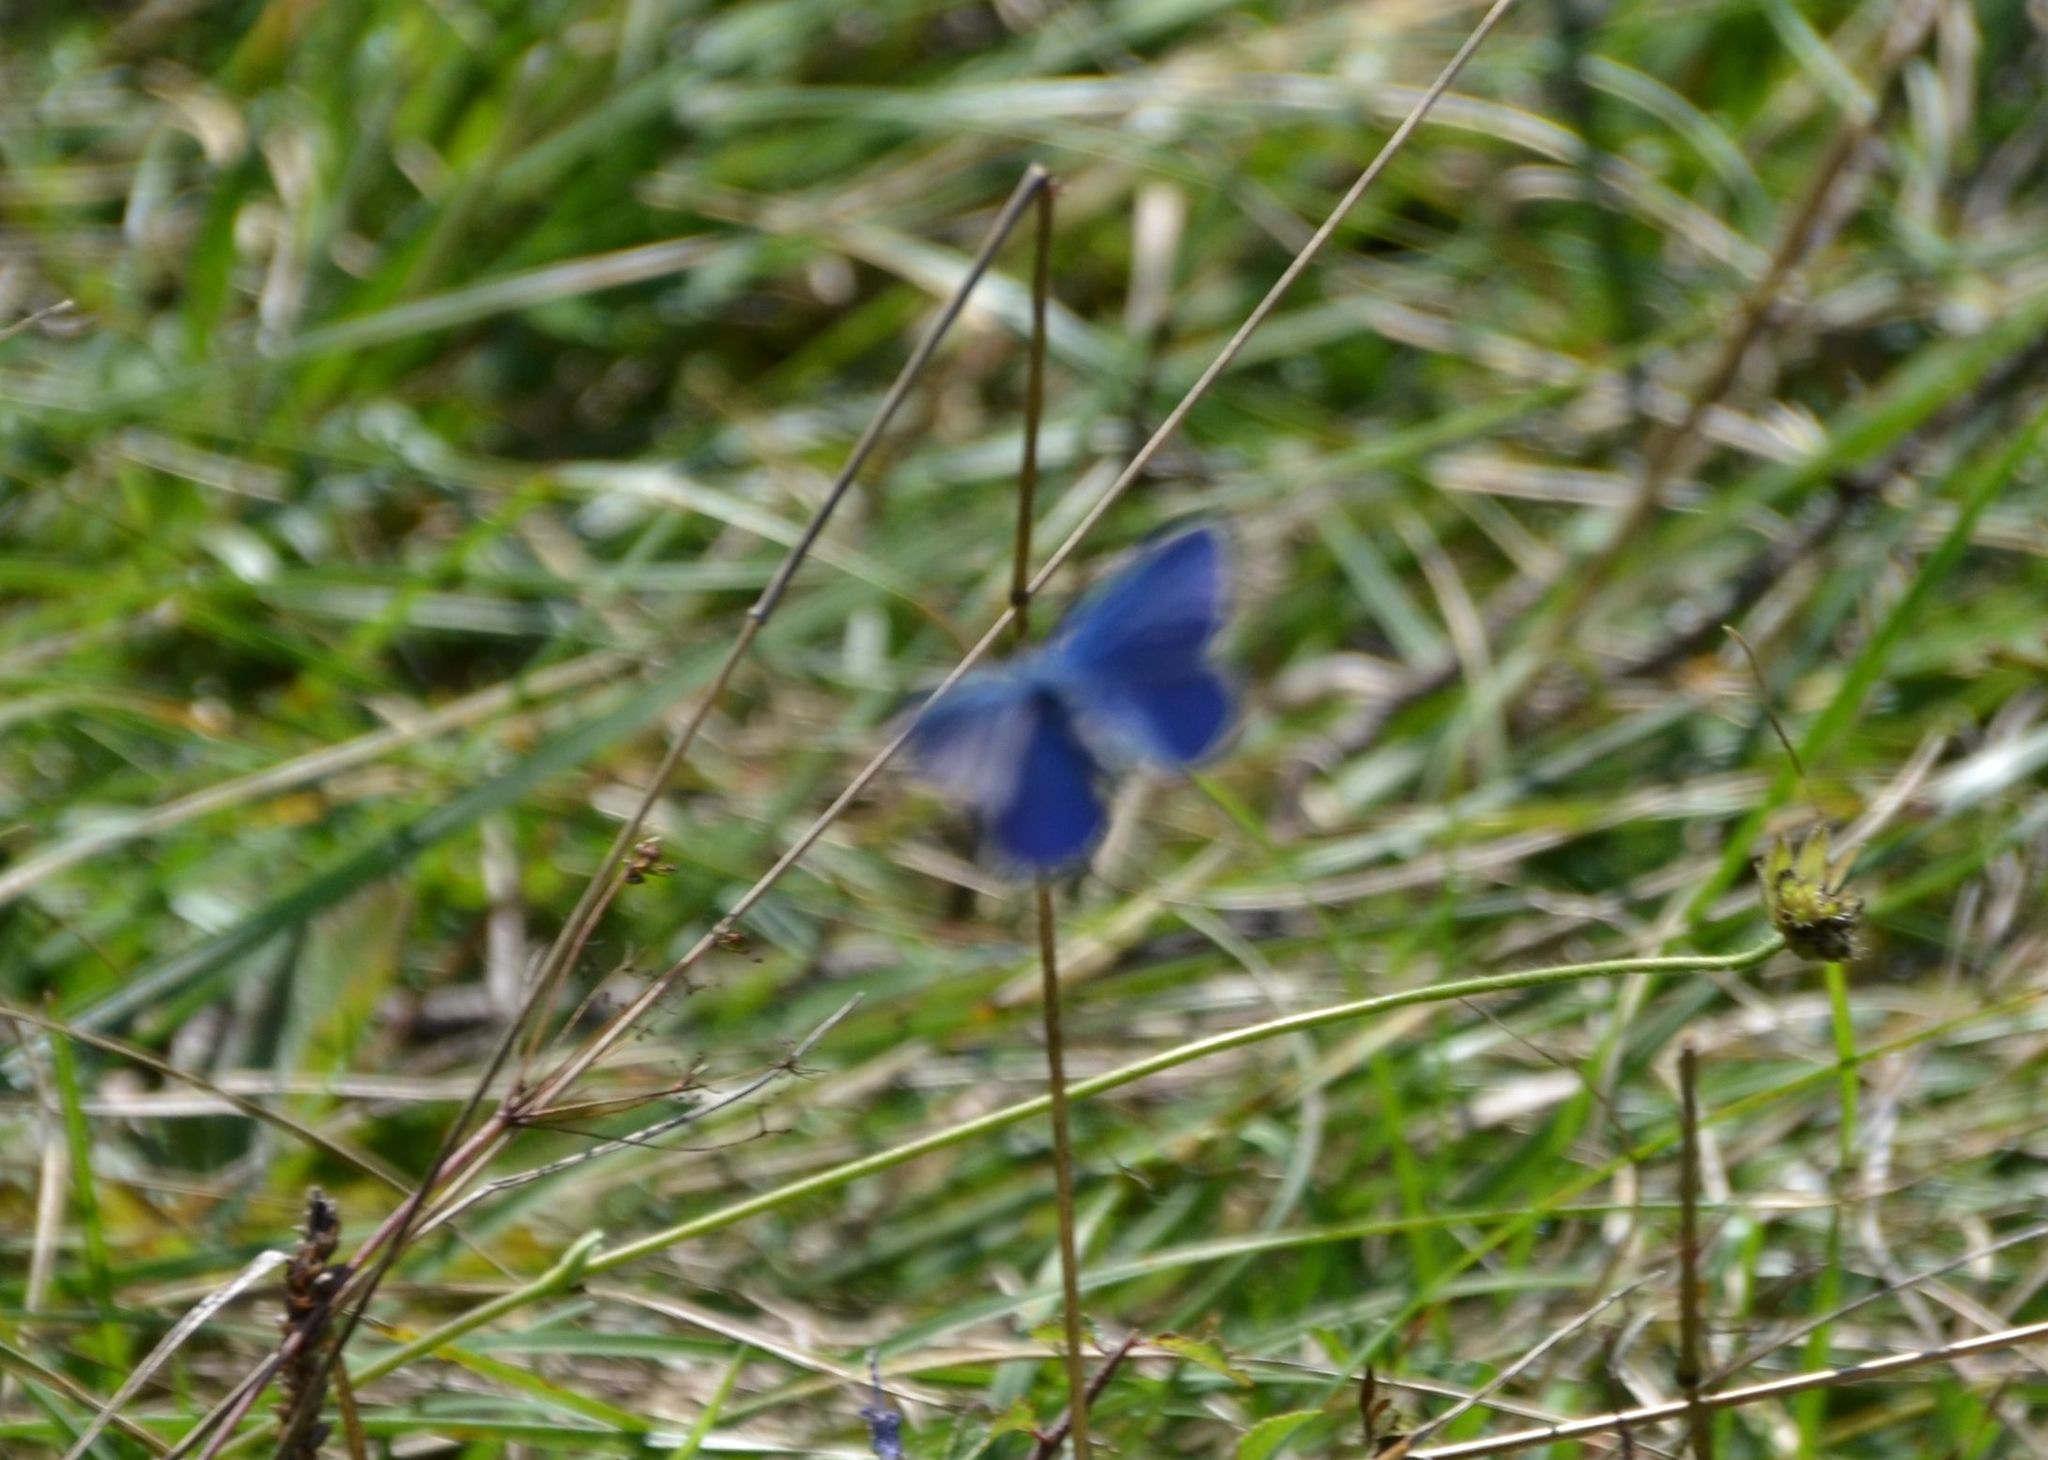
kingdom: Animalia
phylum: Arthropoda
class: Insecta
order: Lepidoptera
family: Lycaenidae
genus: Lysandra
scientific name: Lysandra bellargus
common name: Adonis blue
